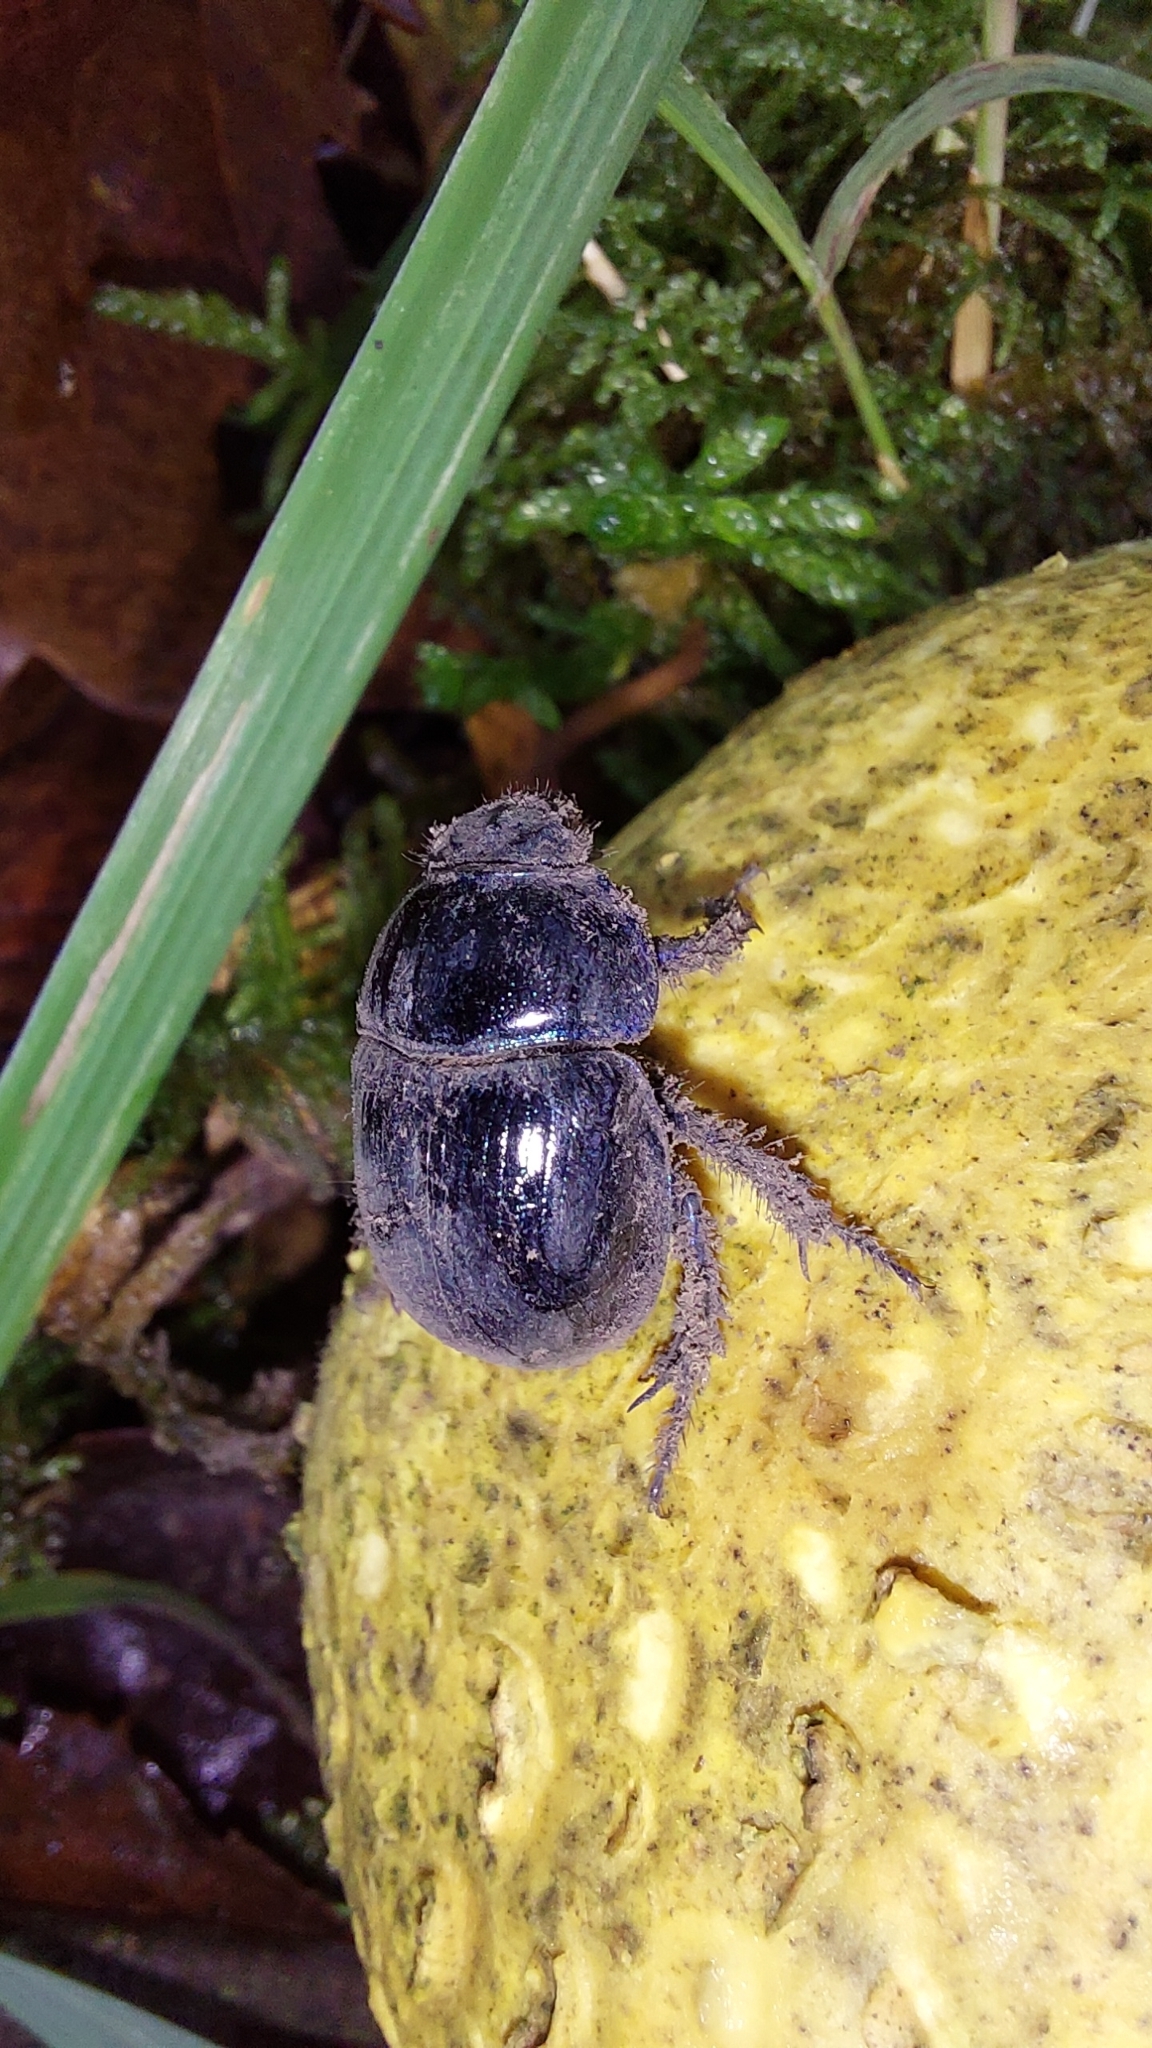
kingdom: Animalia
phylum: Arthropoda
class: Insecta
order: Coleoptera
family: Geotrupidae
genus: Anoplotrupes
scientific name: Anoplotrupes stercorosus
